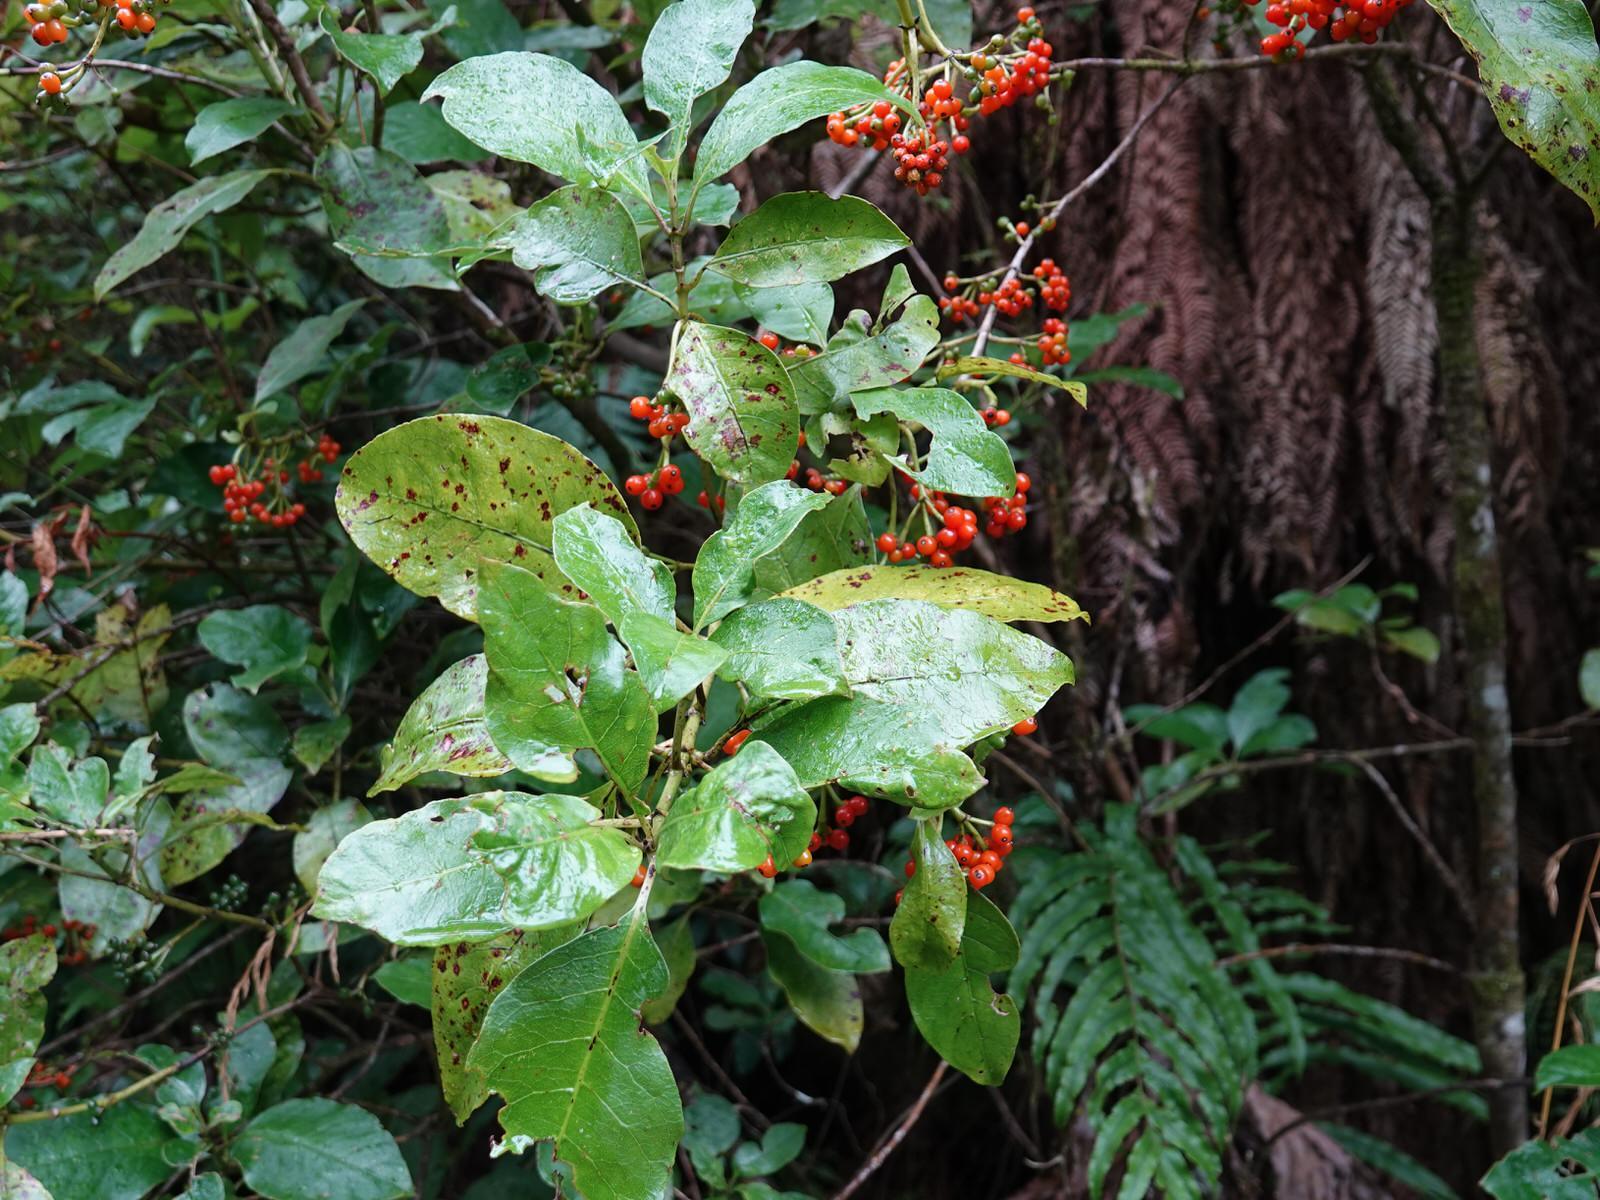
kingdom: Plantae
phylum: Tracheophyta
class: Magnoliopsida
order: Gentianales
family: Rubiaceae
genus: Coprosma
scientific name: Coprosma autumnalis
